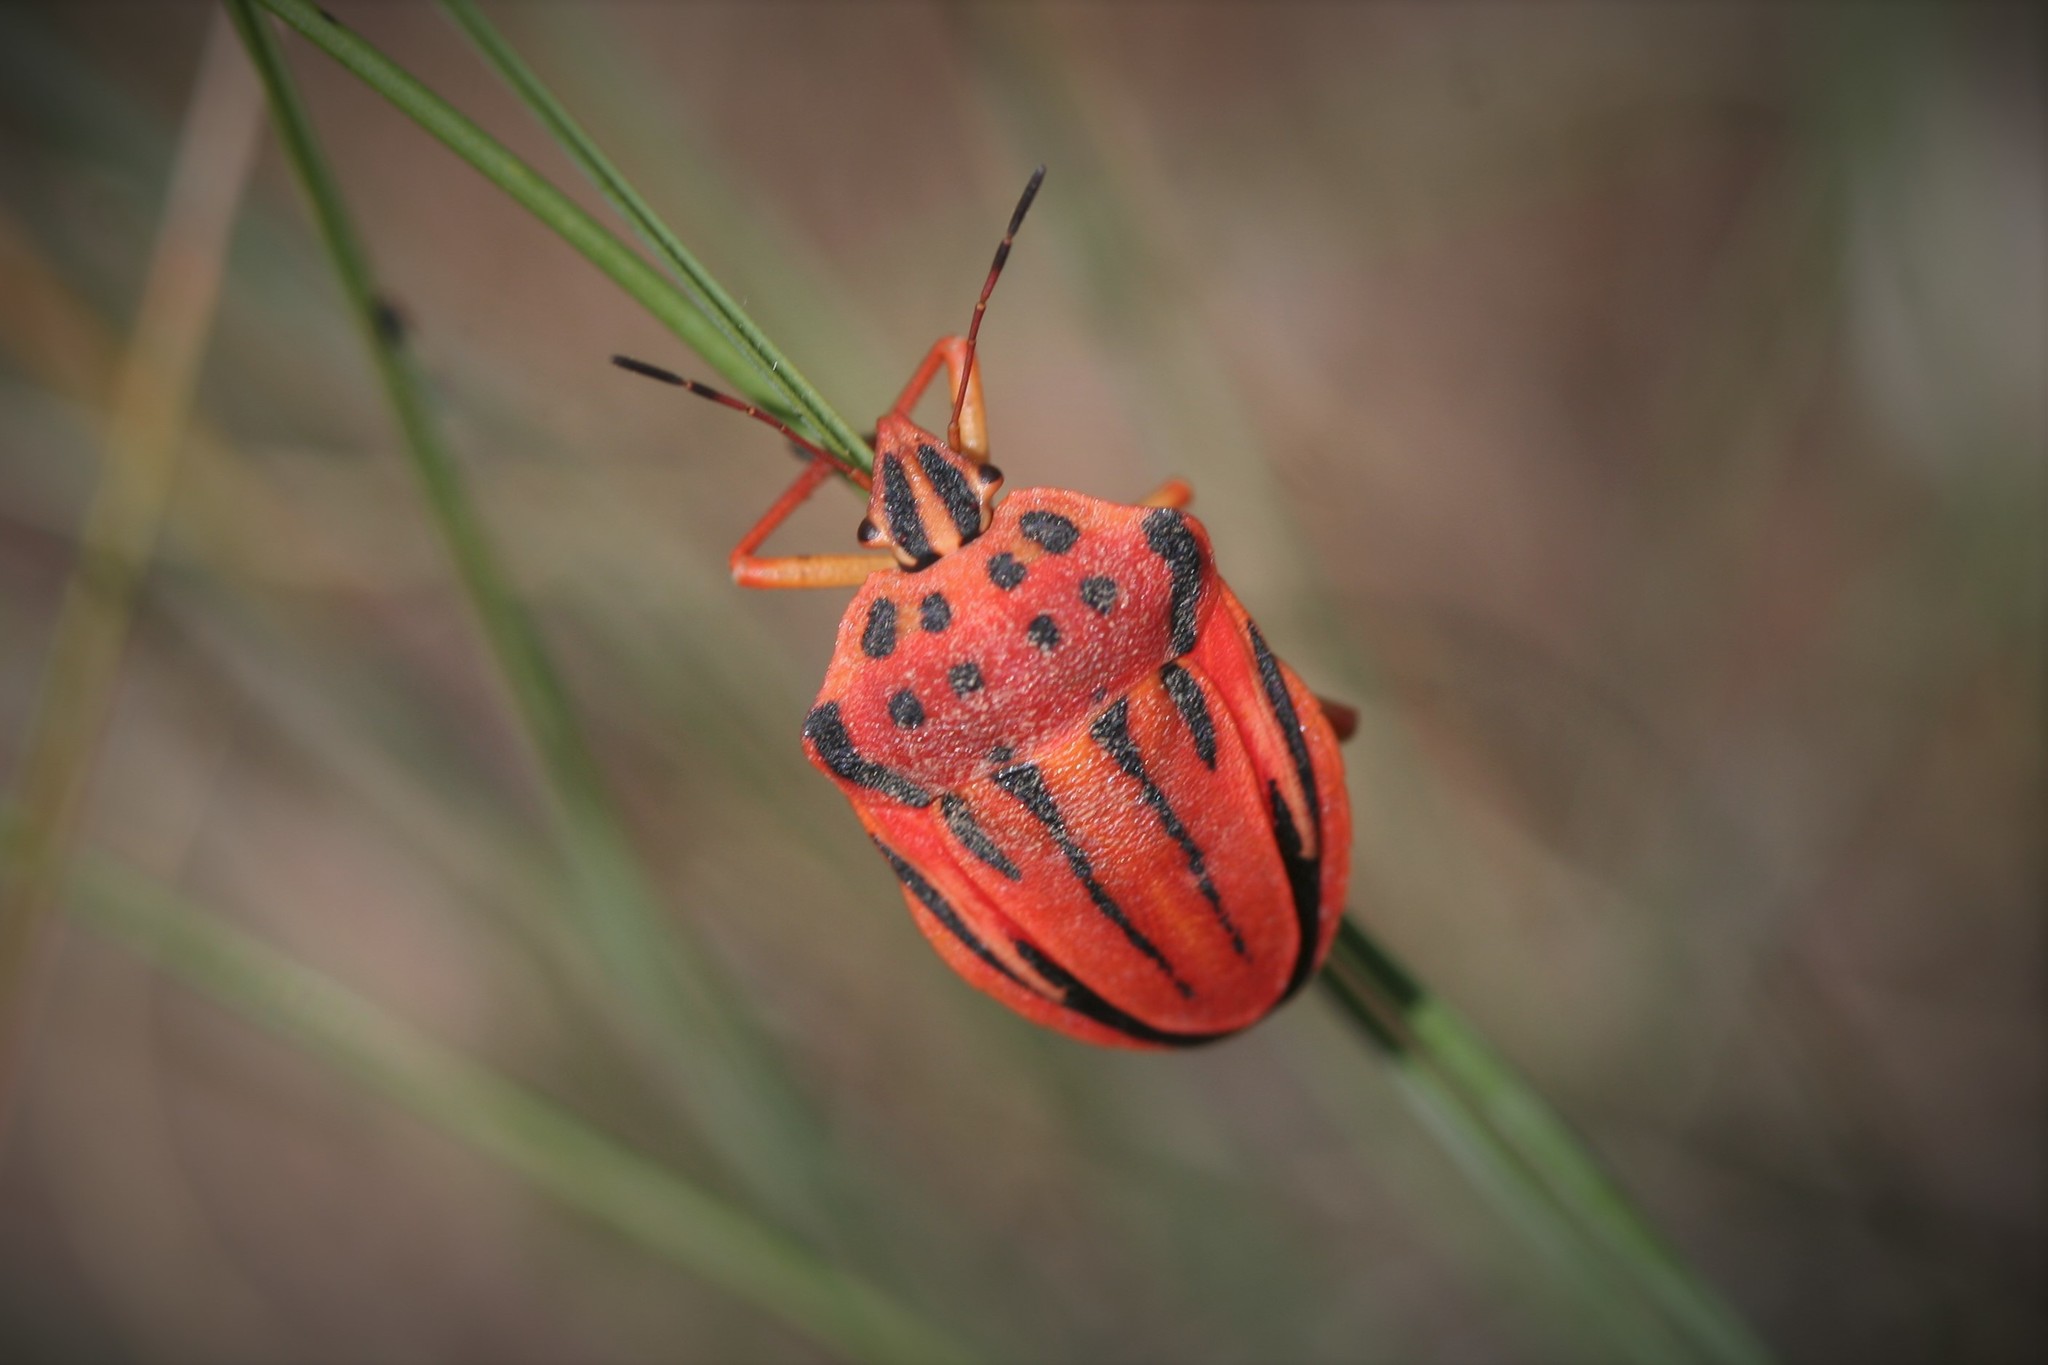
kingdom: Animalia
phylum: Arthropoda
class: Insecta
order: Hemiptera
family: Pentatomidae
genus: Graphosoma
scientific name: Graphosoma semipunctatum
